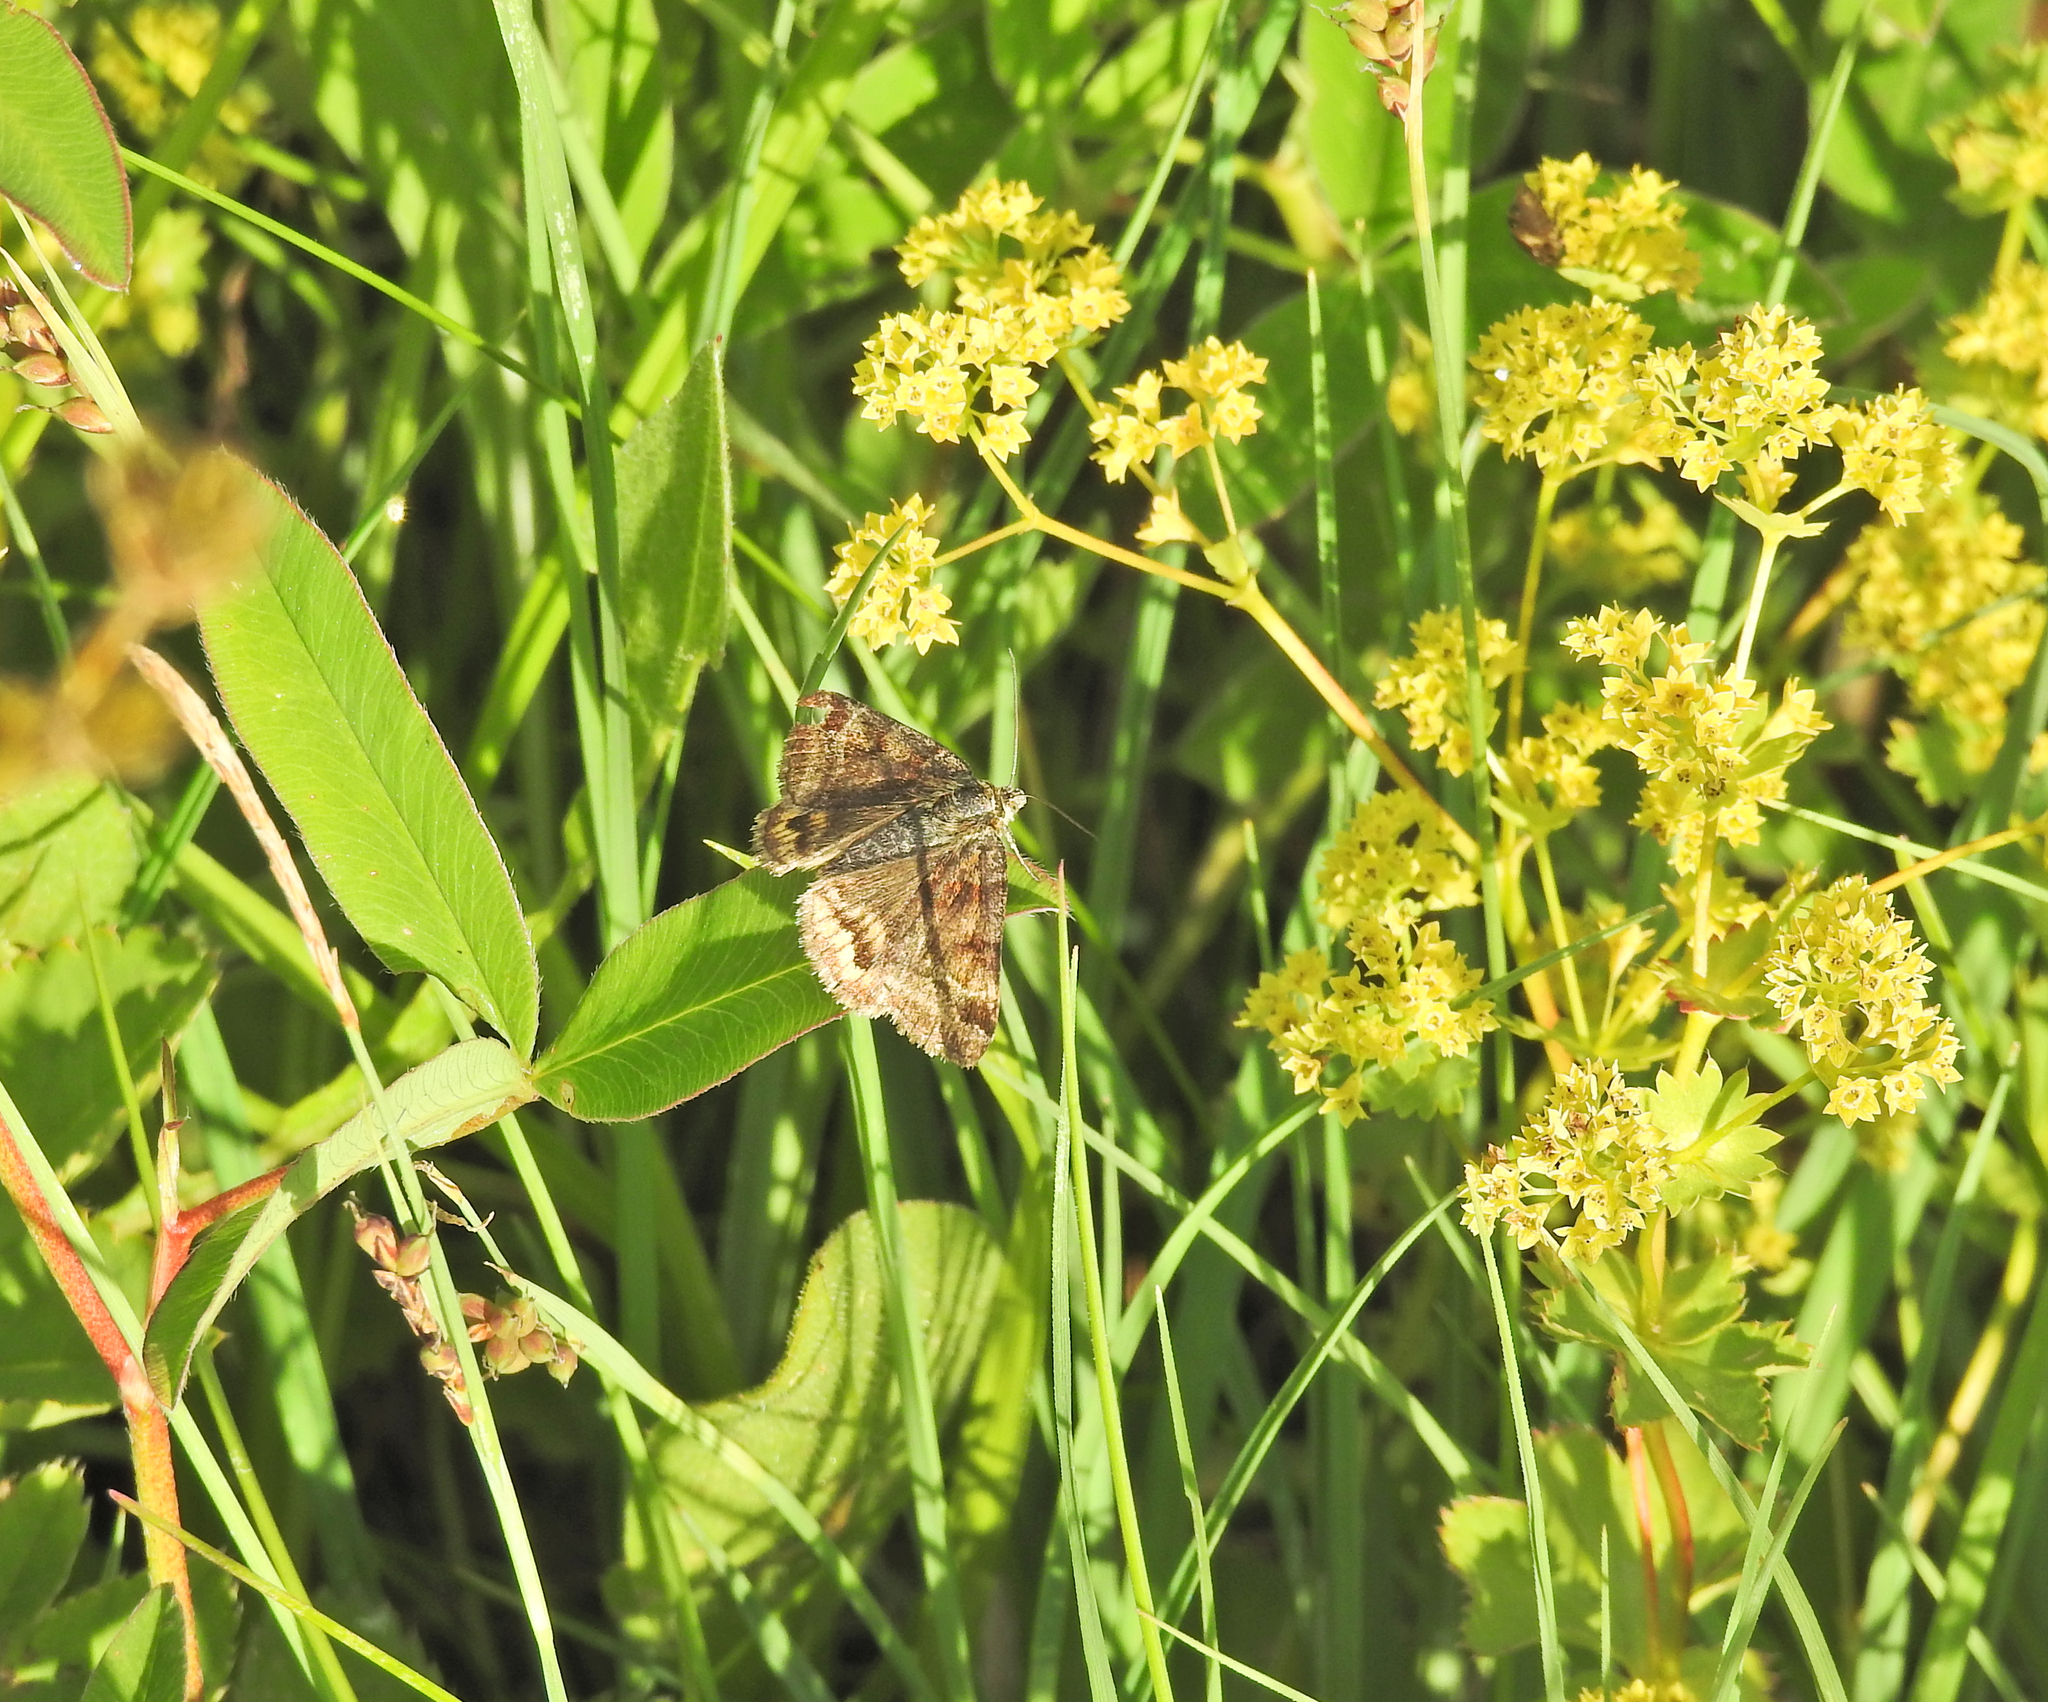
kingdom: Animalia
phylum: Arthropoda
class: Insecta
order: Lepidoptera
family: Erebidae
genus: Euclidia
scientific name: Euclidia glyphica
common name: Burnet companion
